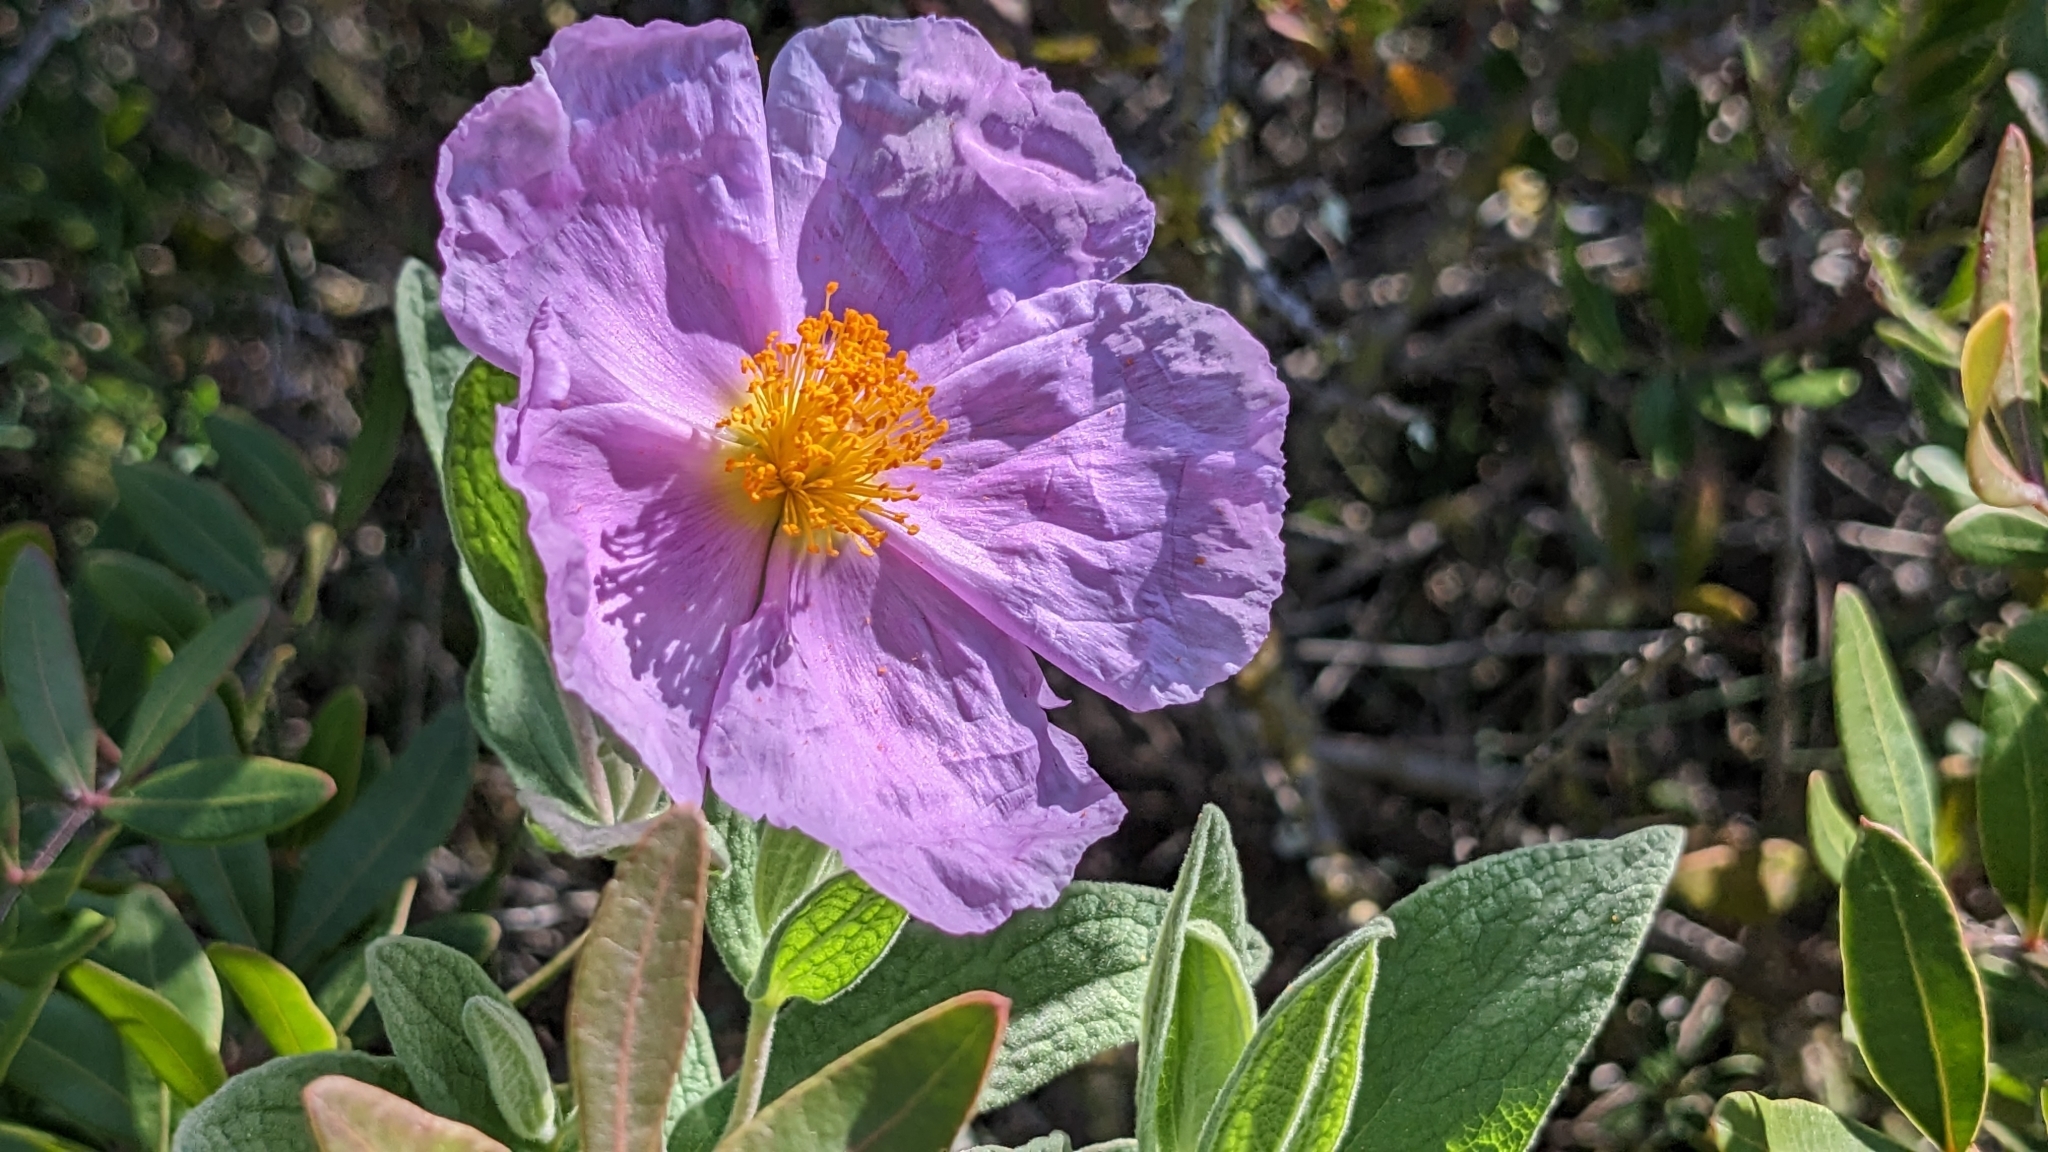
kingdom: Plantae
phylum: Tracheophyta
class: Magnoliopsida
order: Malvales
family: Cistaceae
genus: Cistus
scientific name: Cistus albidus
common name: White-leaf rock-rose
